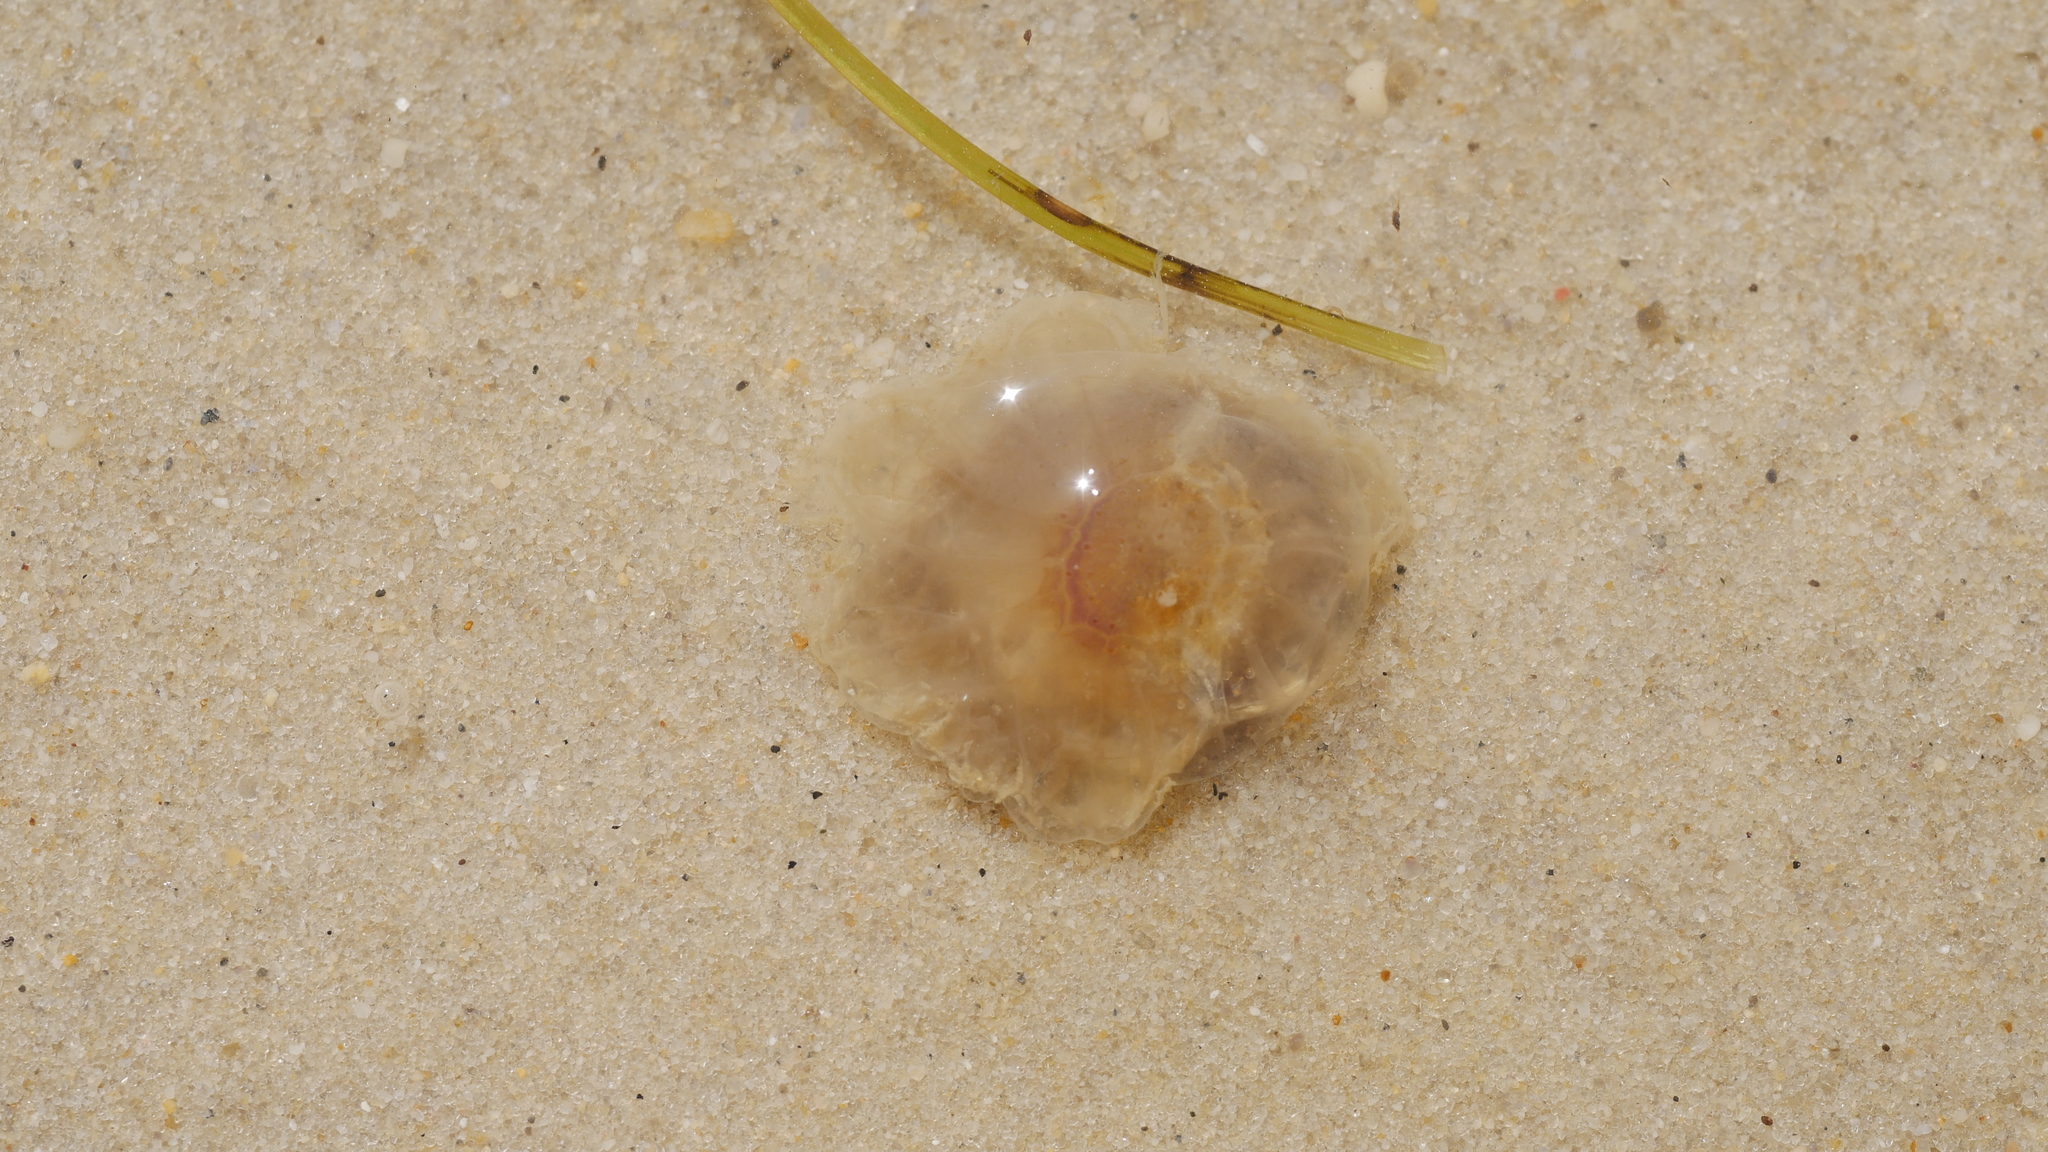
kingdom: Animalia
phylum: Cnidaria
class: Scyphozoa
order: Semaeostomeae
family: Cyaneidae
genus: Cyanea
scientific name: Cyanea fulva
